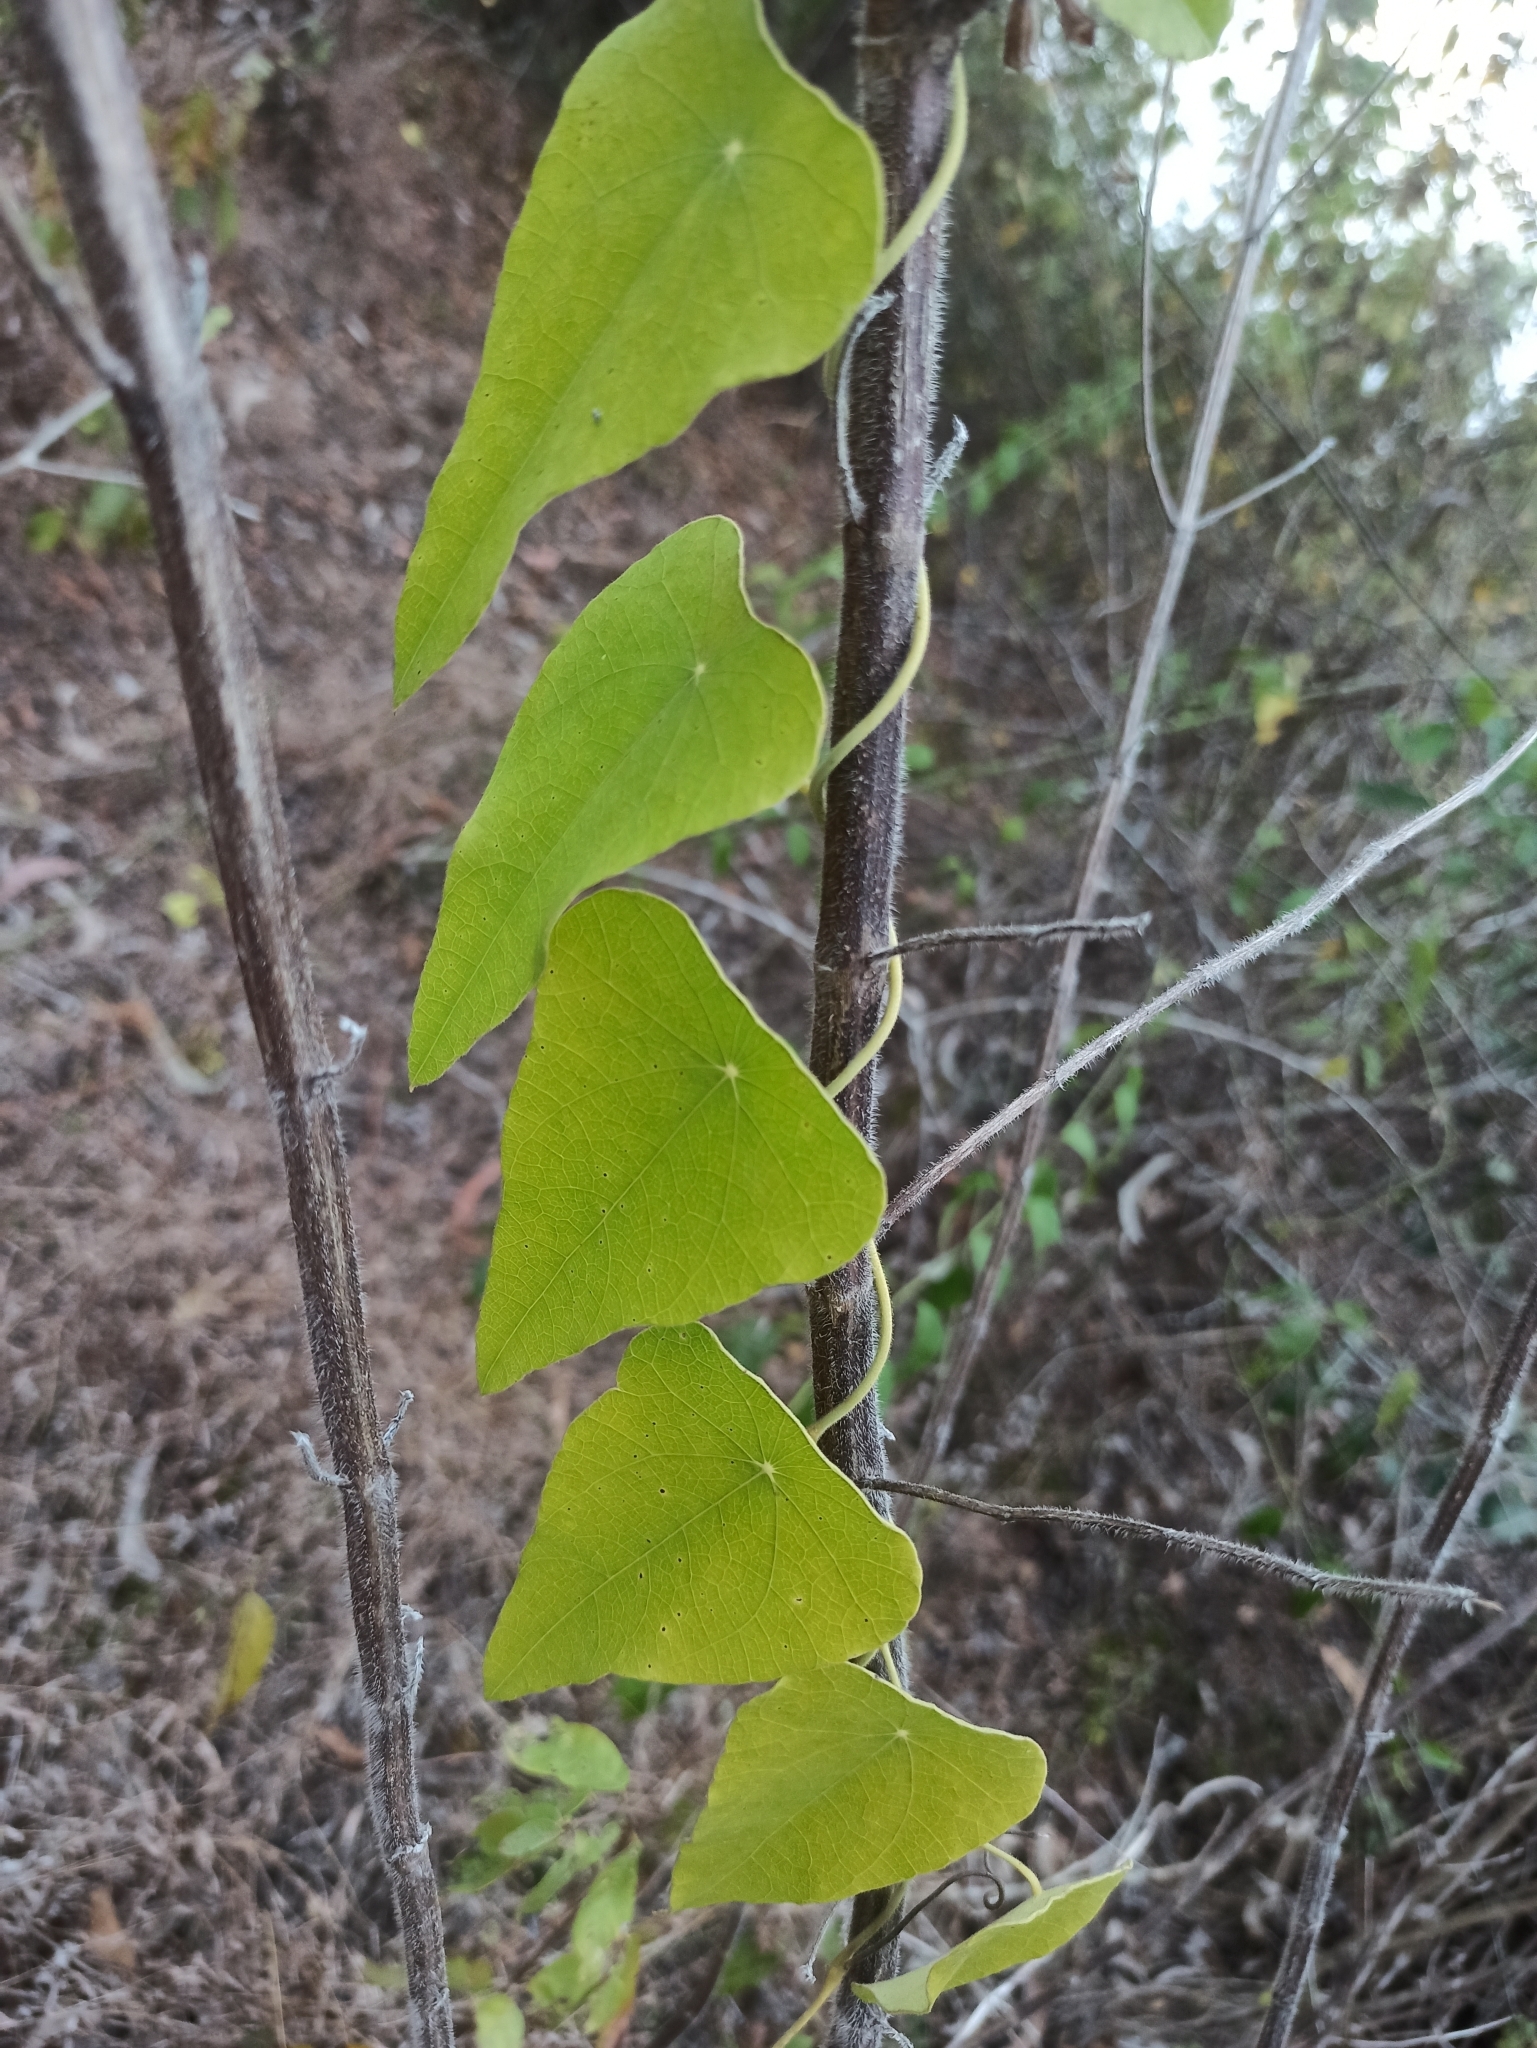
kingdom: Plantae
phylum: Tracheophyta
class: Magnoliopsida
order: Ranunculales
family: Menispermaceae
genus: Cyclea
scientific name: Cyclea peltata
